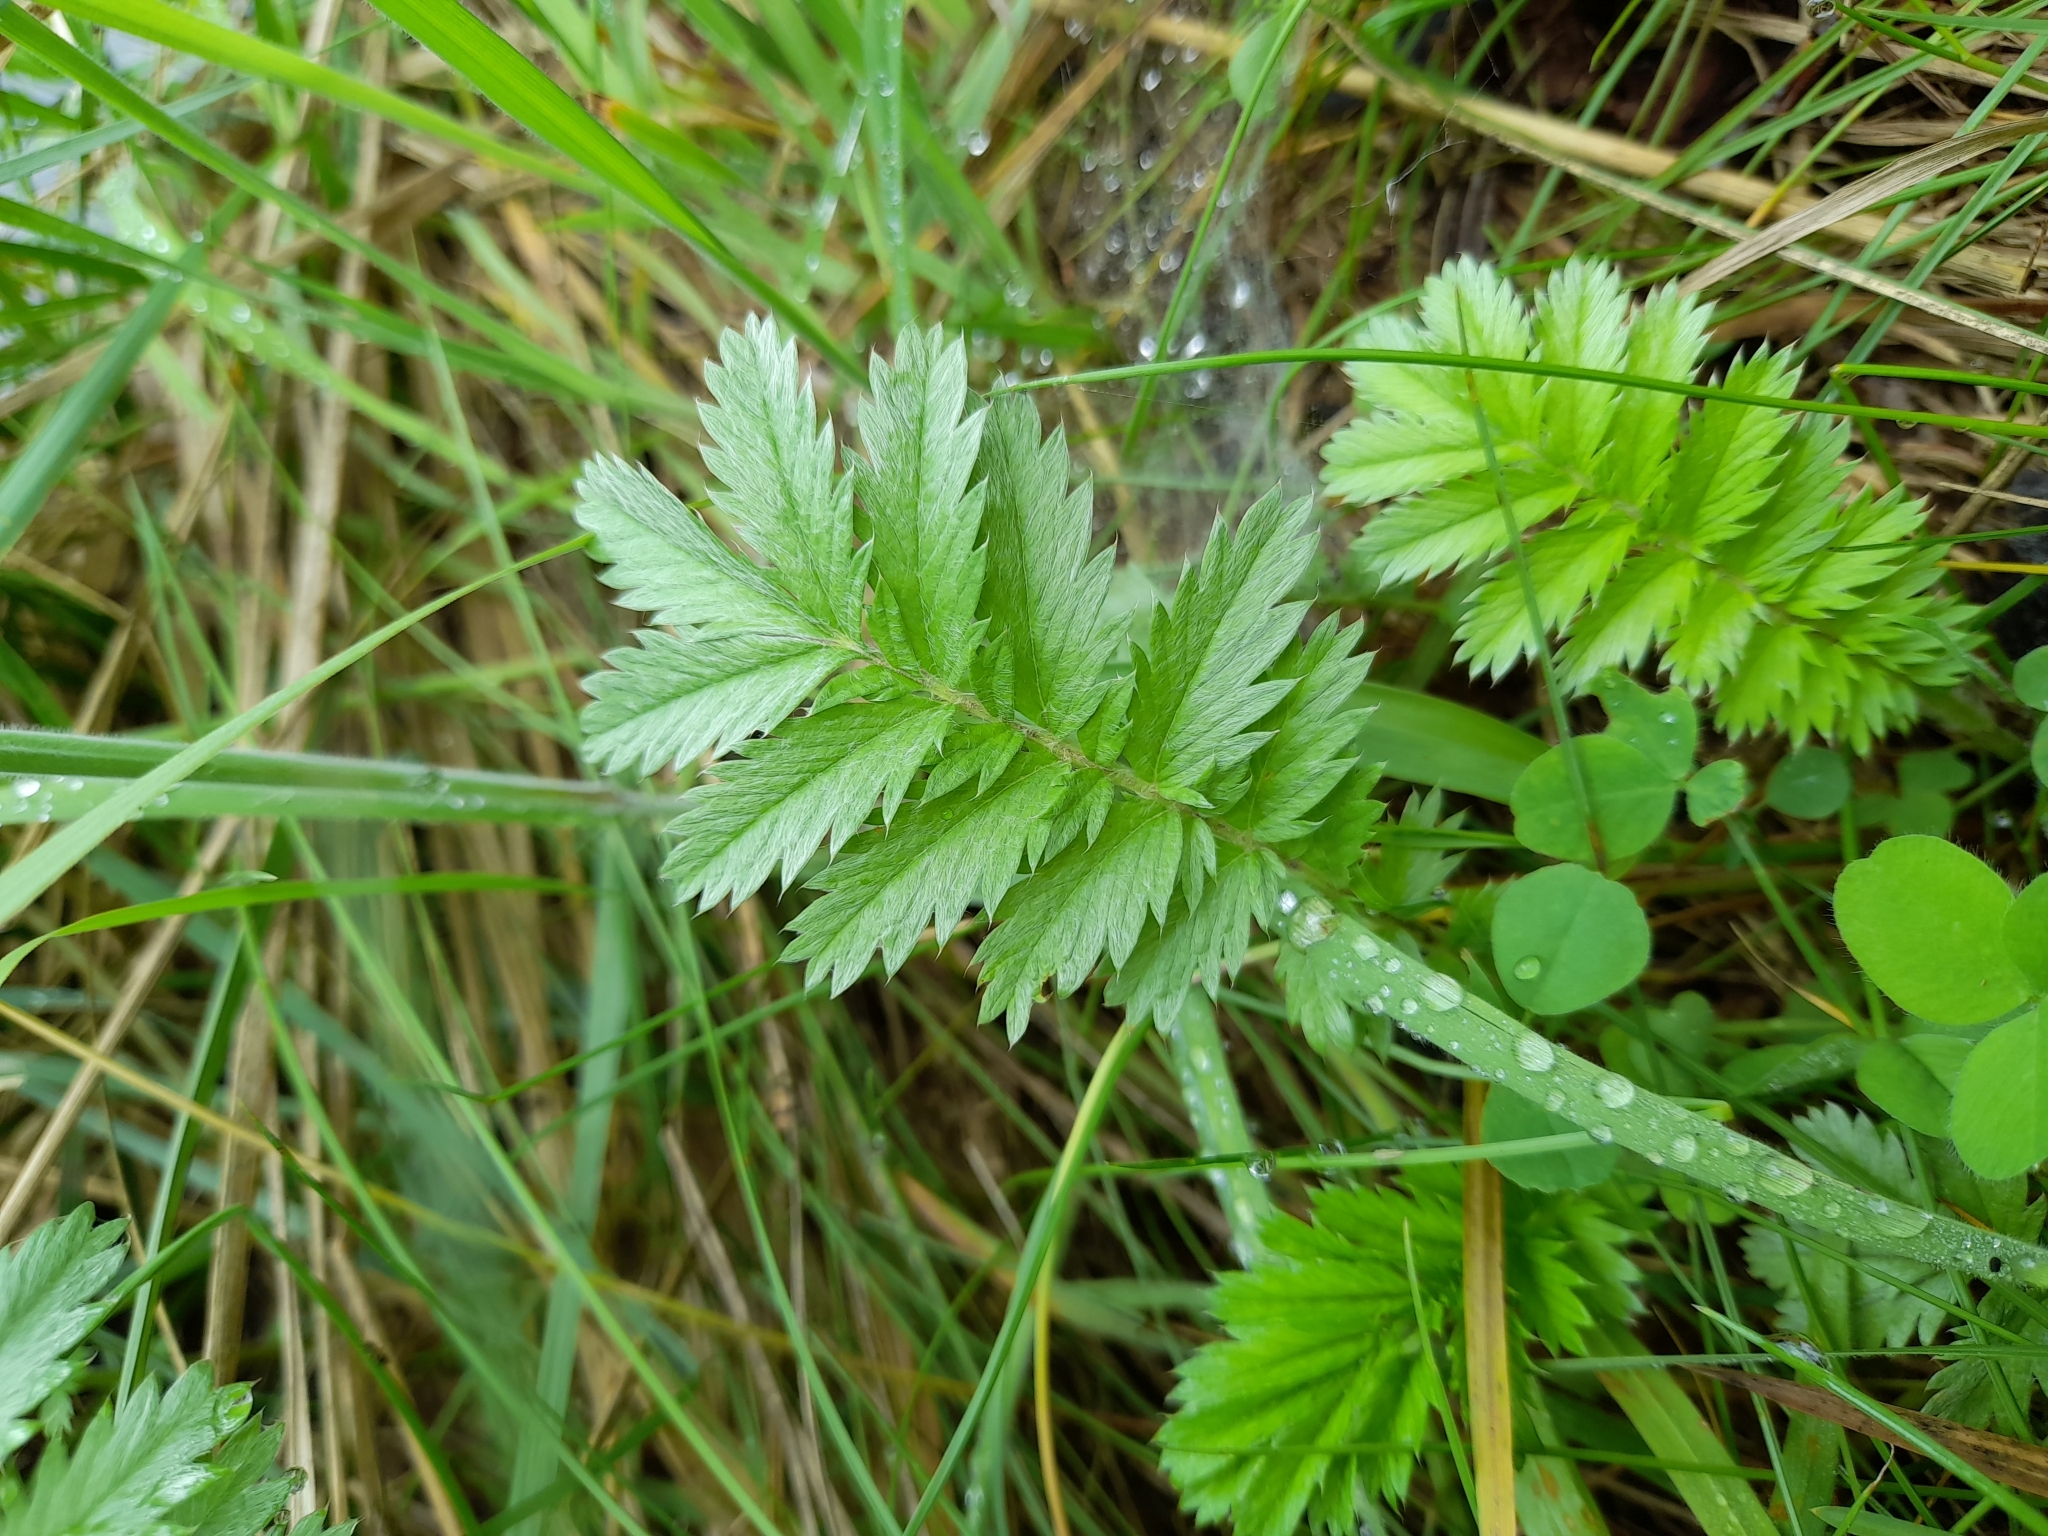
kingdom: Plantae
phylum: Tracheophyta
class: Magnoliopsida
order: Rosales
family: Rosaceae
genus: Argentina
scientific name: Argentina anserina
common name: Common silverweed
